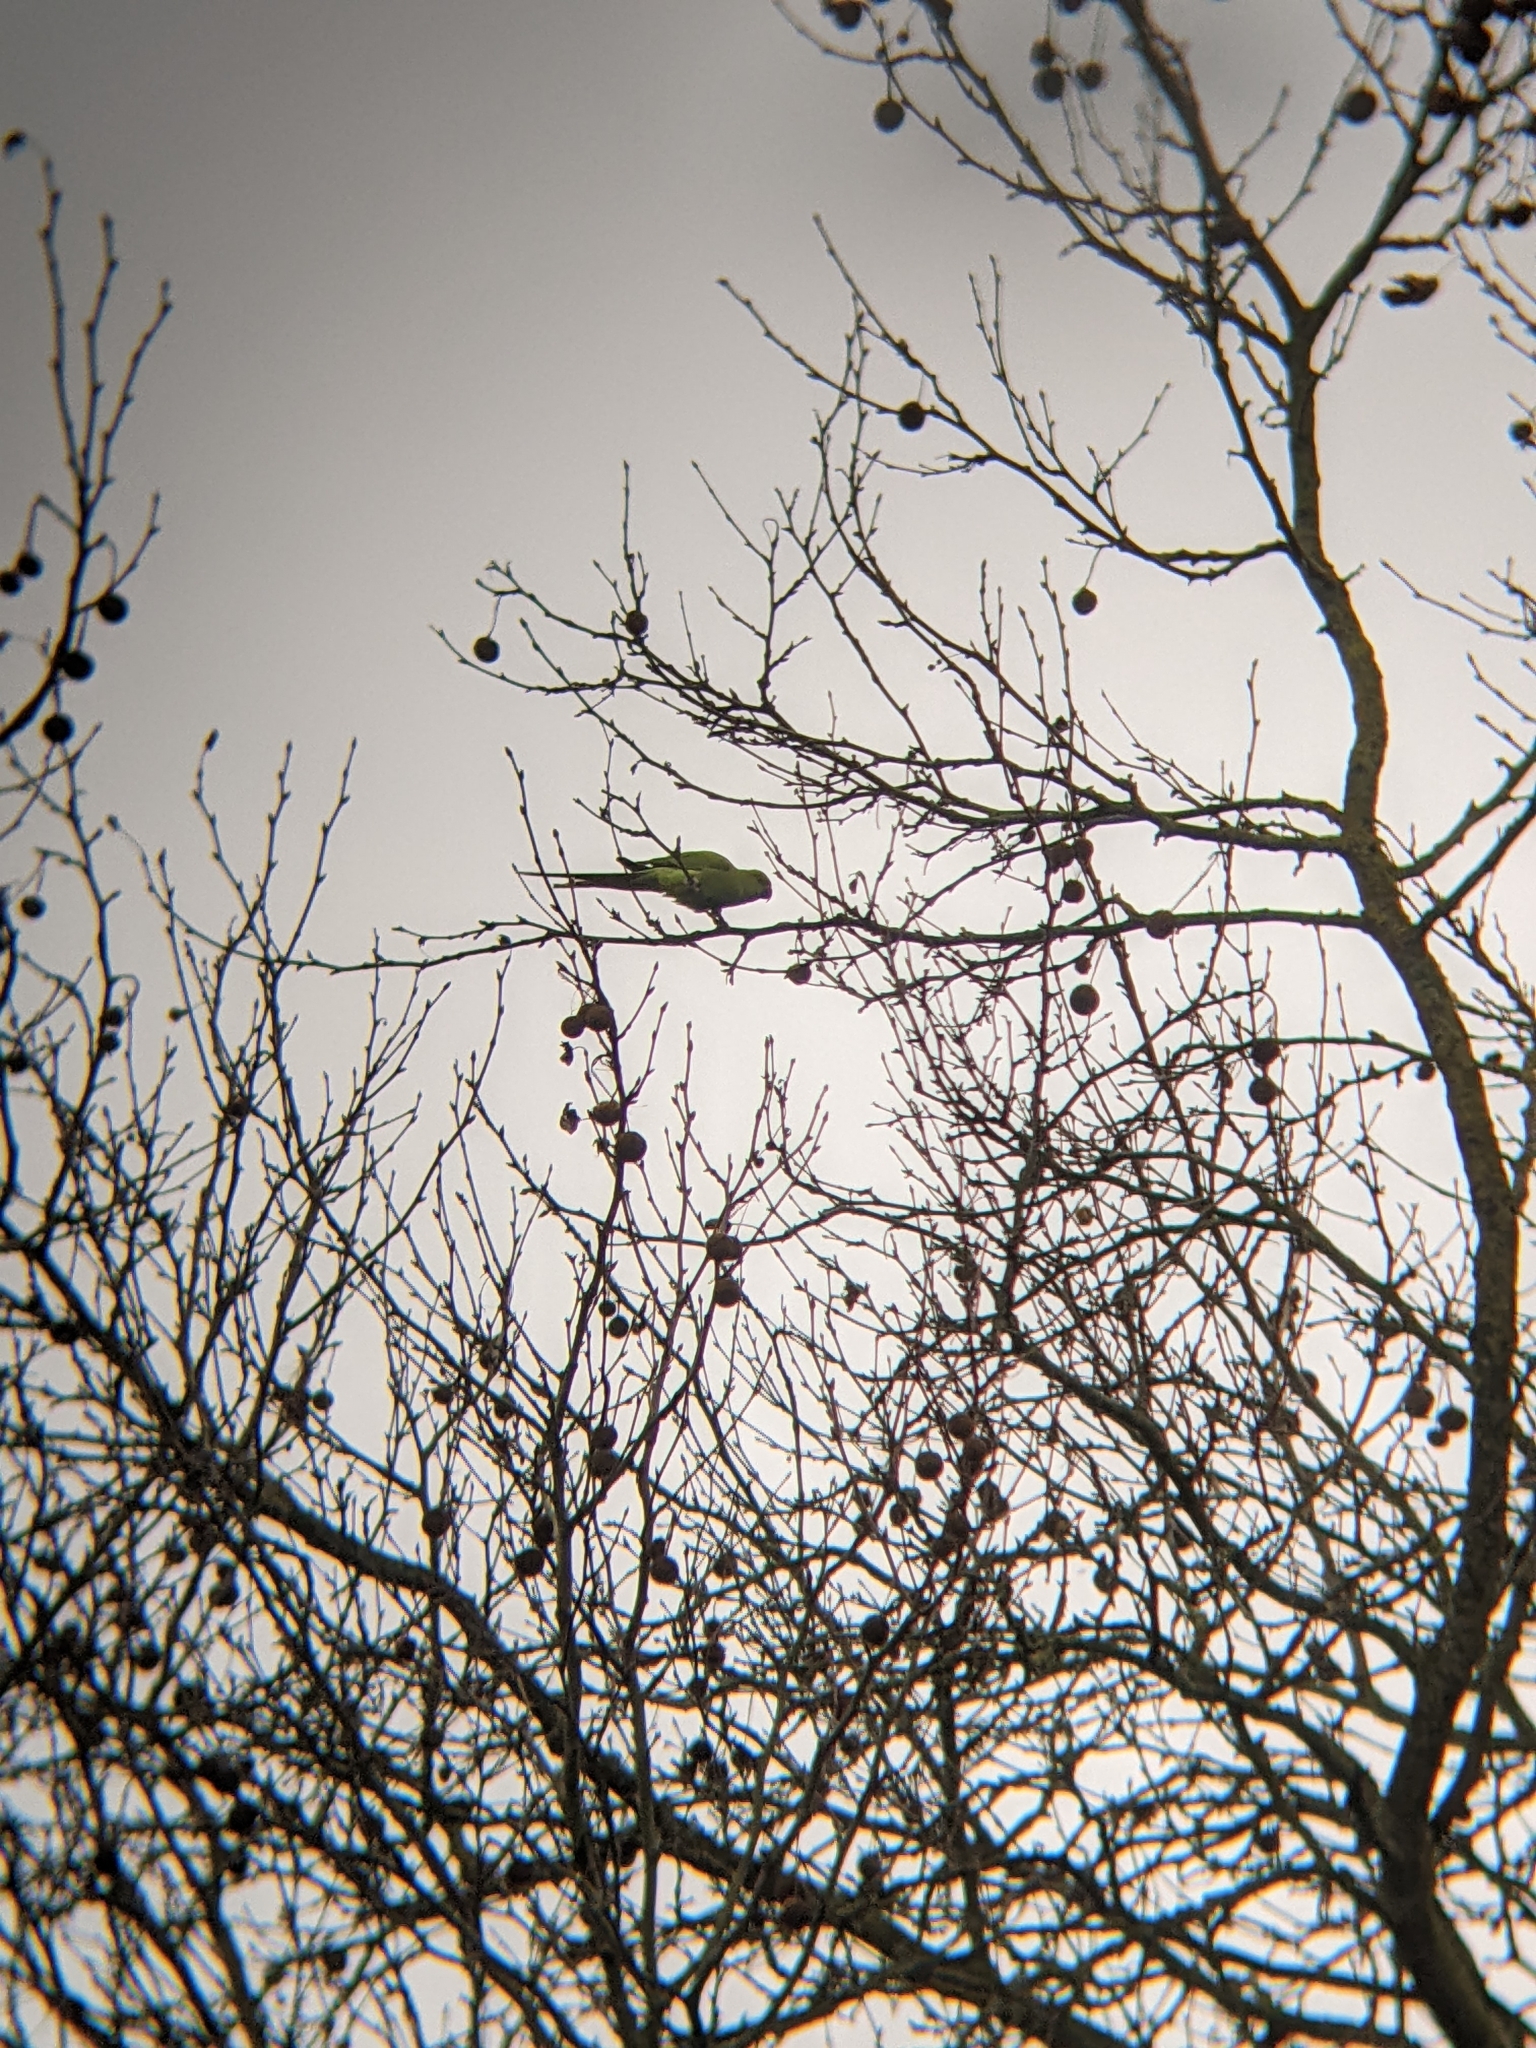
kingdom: Animalia
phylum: Chordata
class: Aves
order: Psittaciformes
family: Psittacidae
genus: Psittacula
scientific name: Psittacula krameri
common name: Rose-ringed parakeet
